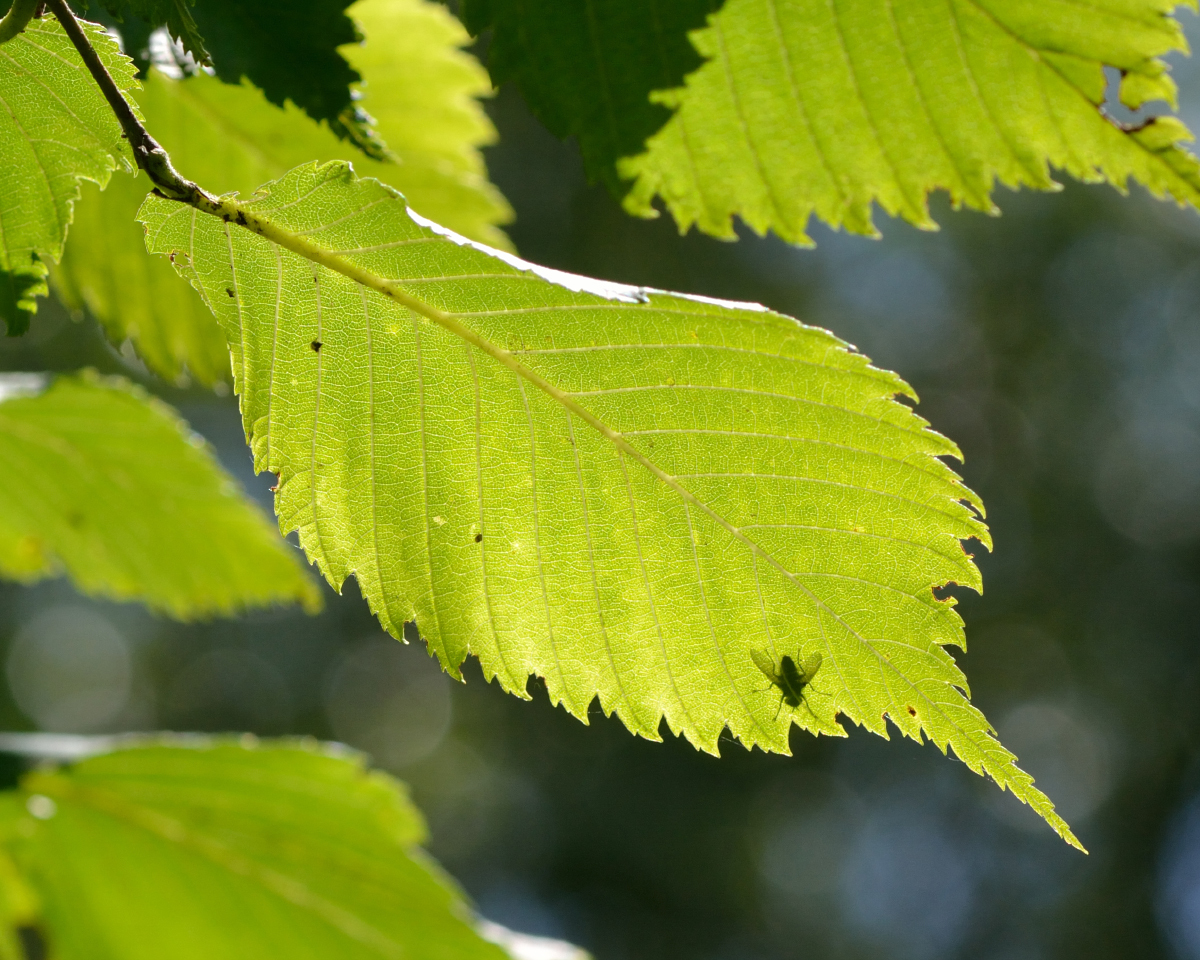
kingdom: Plantae
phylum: Tracheophyta
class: Magnoliopsida
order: Rosales
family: Ulmaceae
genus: Ulmus
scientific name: Ulmus laevis
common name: European white-elm
